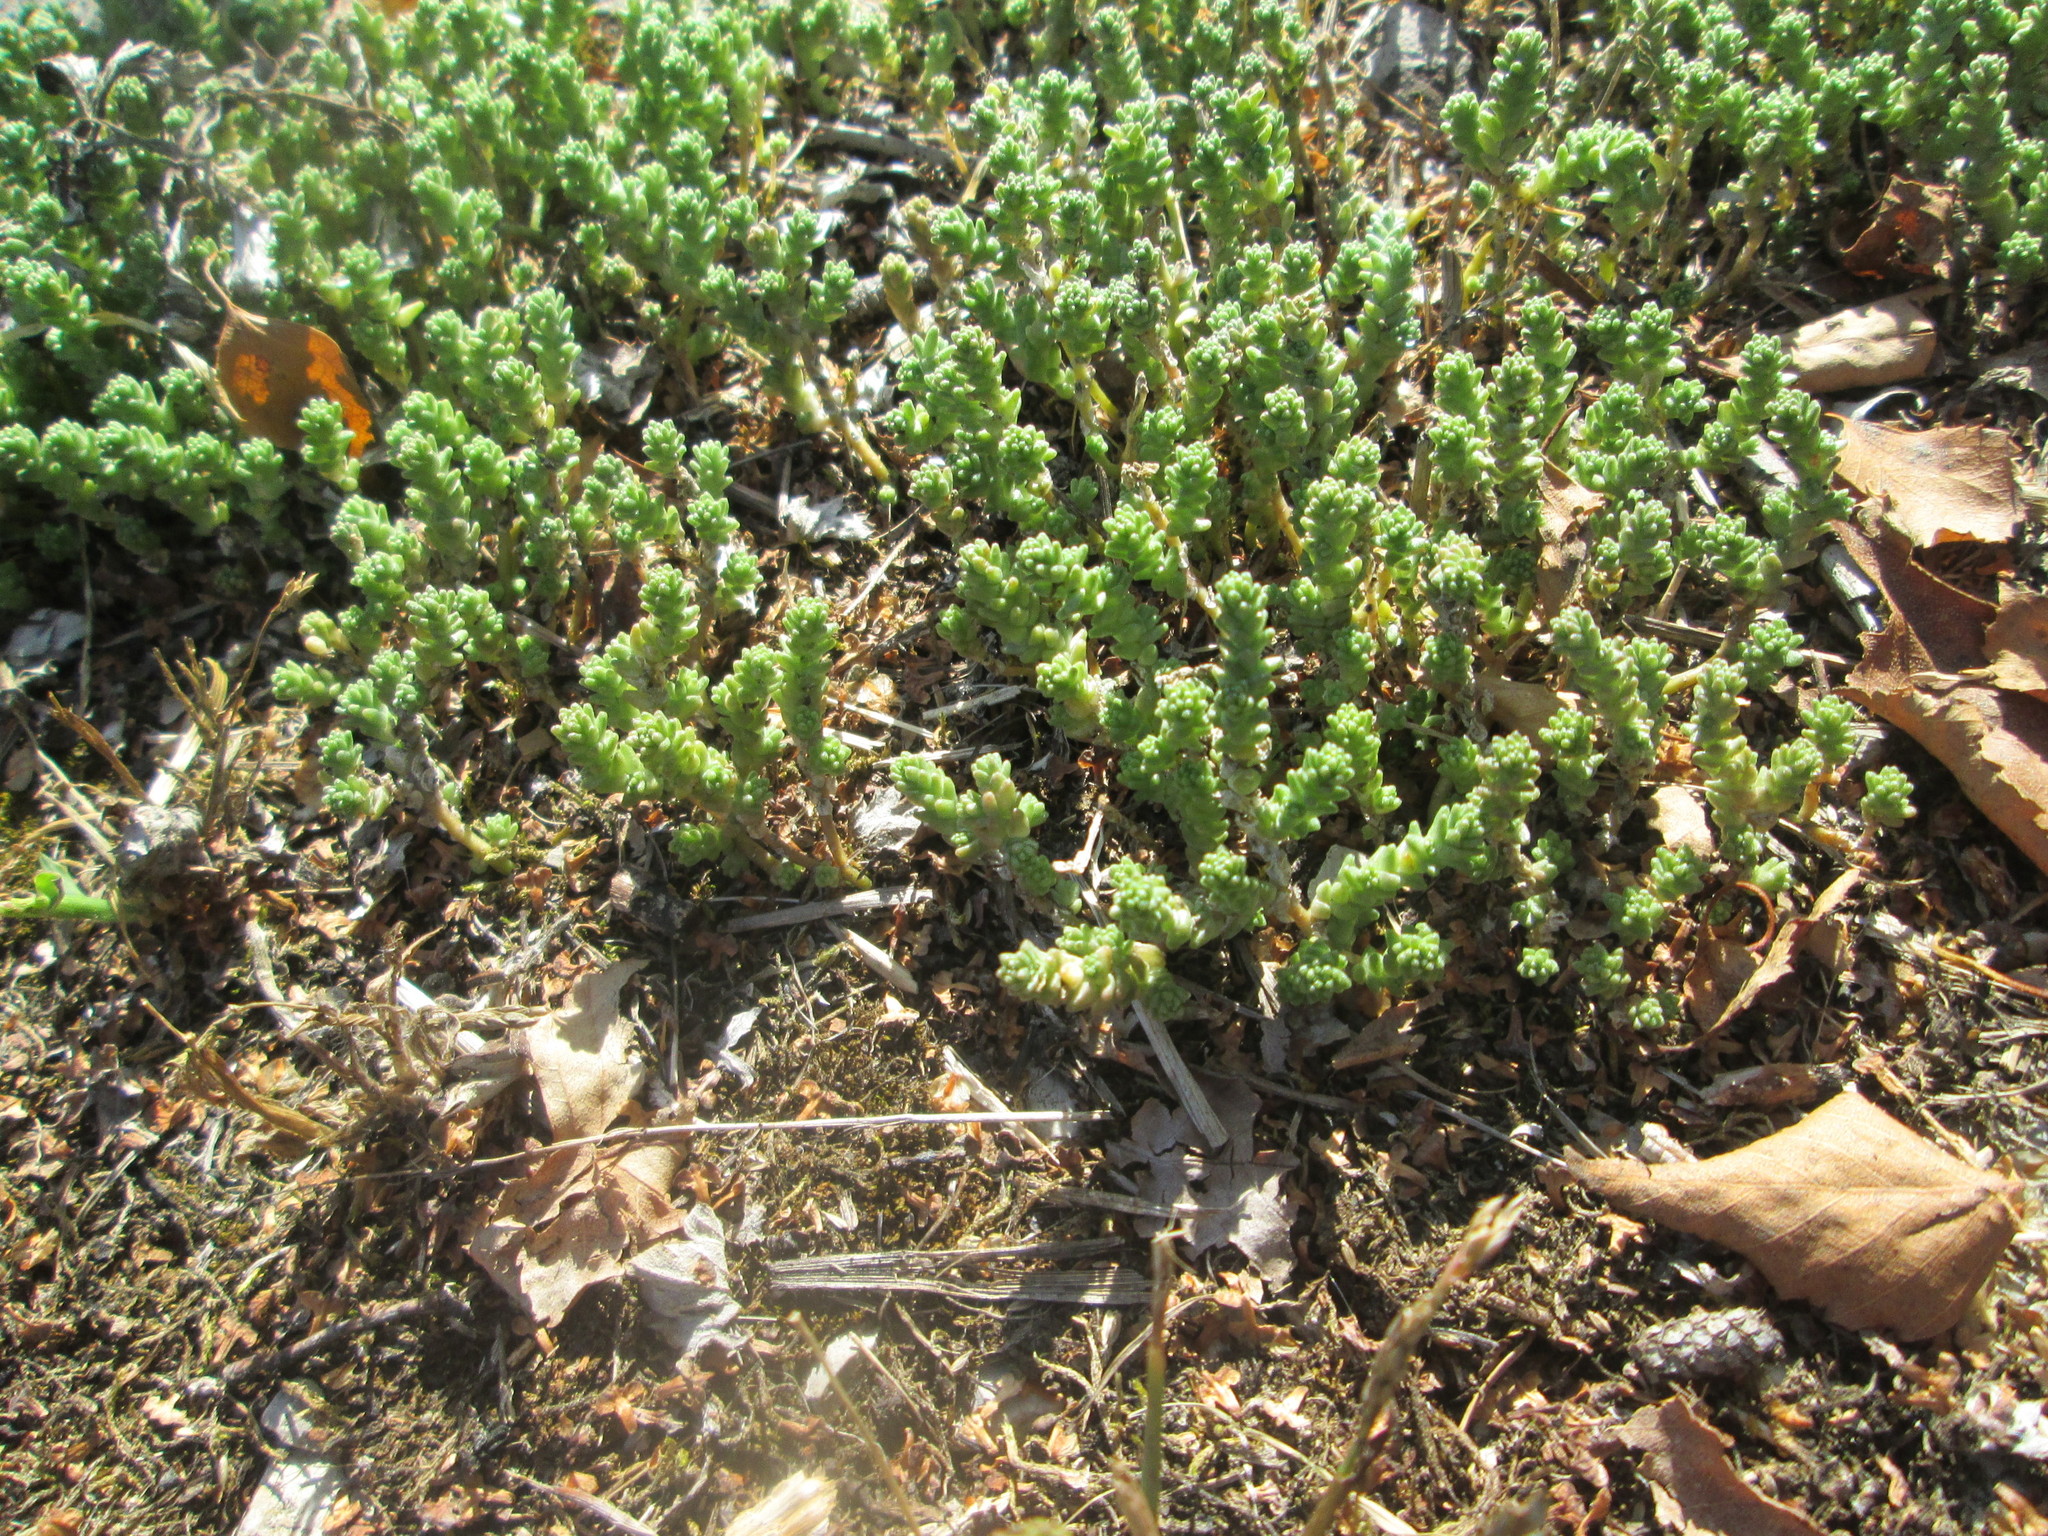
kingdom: Plantae
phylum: Tracheophyta
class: Magnoliopsida
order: Saxifragales
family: Crassulaceae
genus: Sedum
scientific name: Sedum acre
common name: Biting stonecrop
